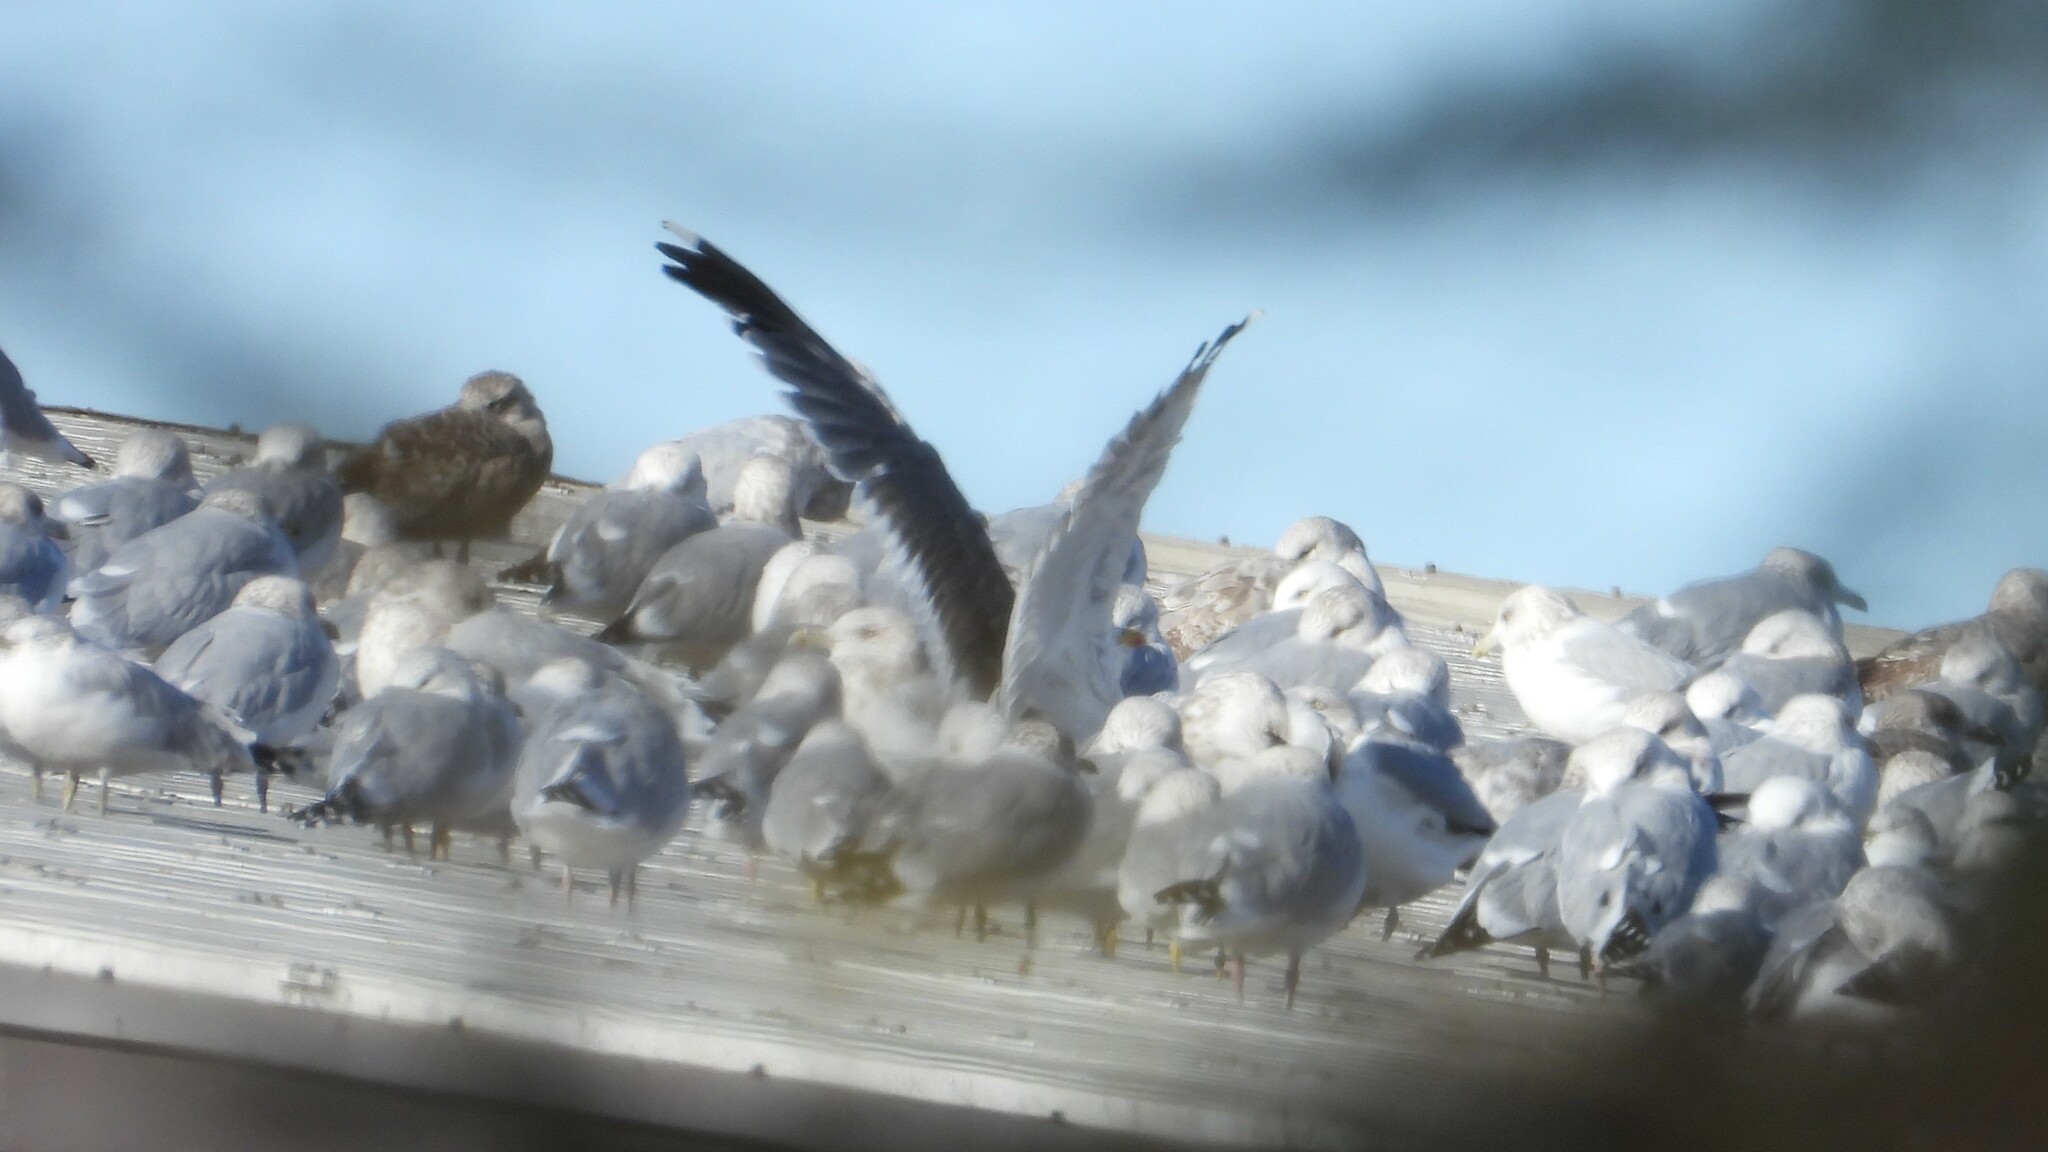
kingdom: Animalia
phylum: Chordata
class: Aves
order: Charadriiformes
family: Laridae
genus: Larus
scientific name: Larus fuscus
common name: Lesser black-backed gull
